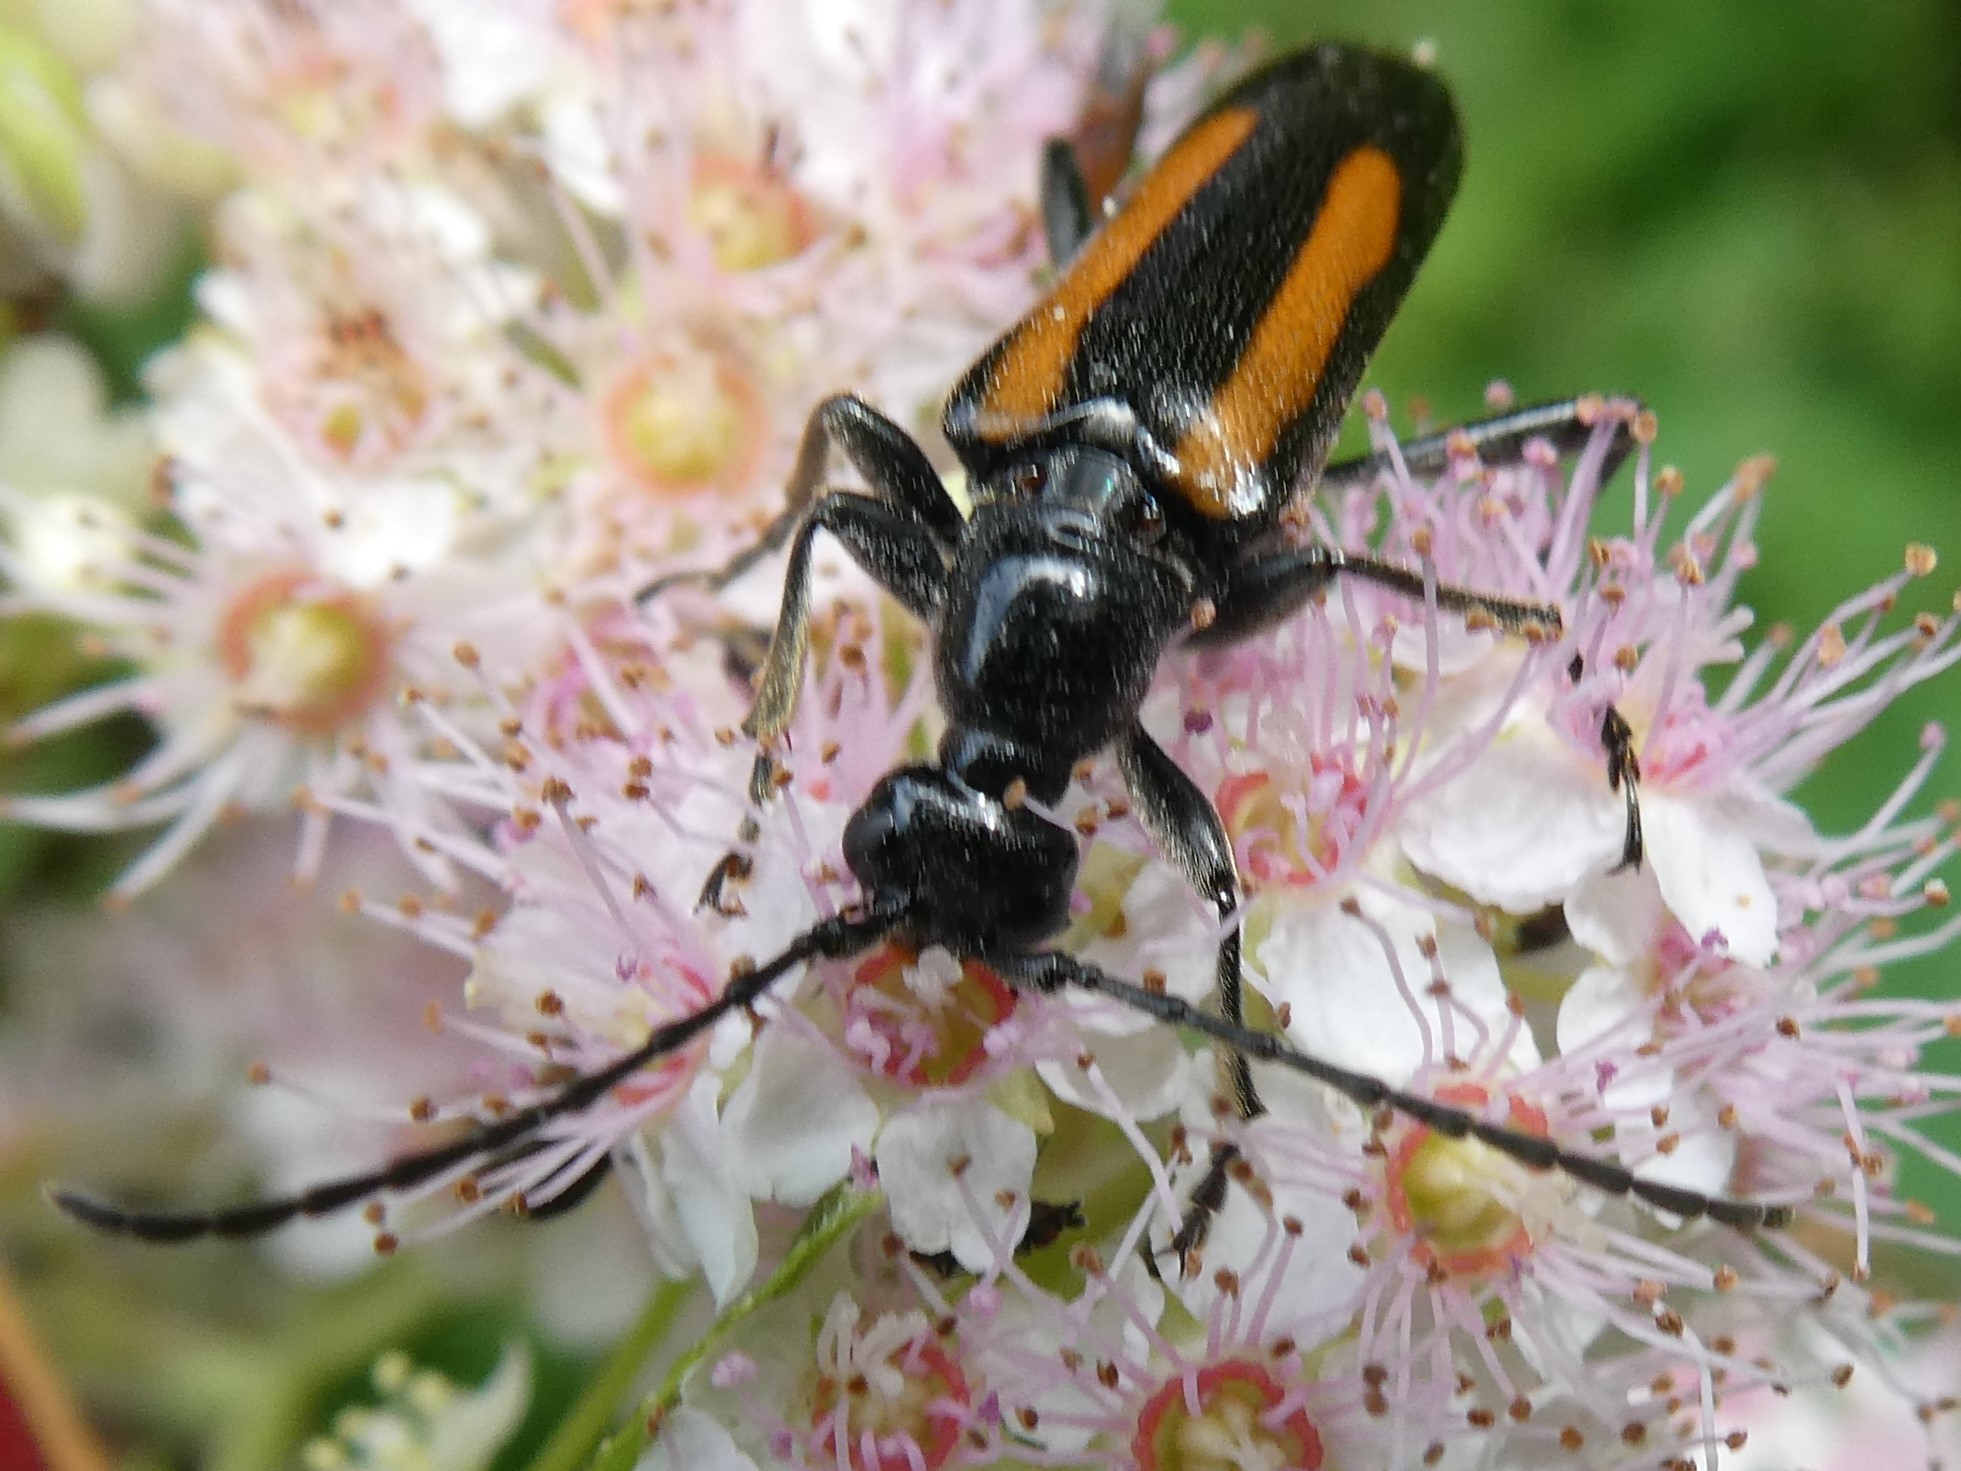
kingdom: Animalia
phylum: Arthropoda
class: Insecta
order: Coleoptera
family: Cerambycidae
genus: Strangalepta
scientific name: Strangalepta abbreviata
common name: Strangalepta flower longhorn beetle
